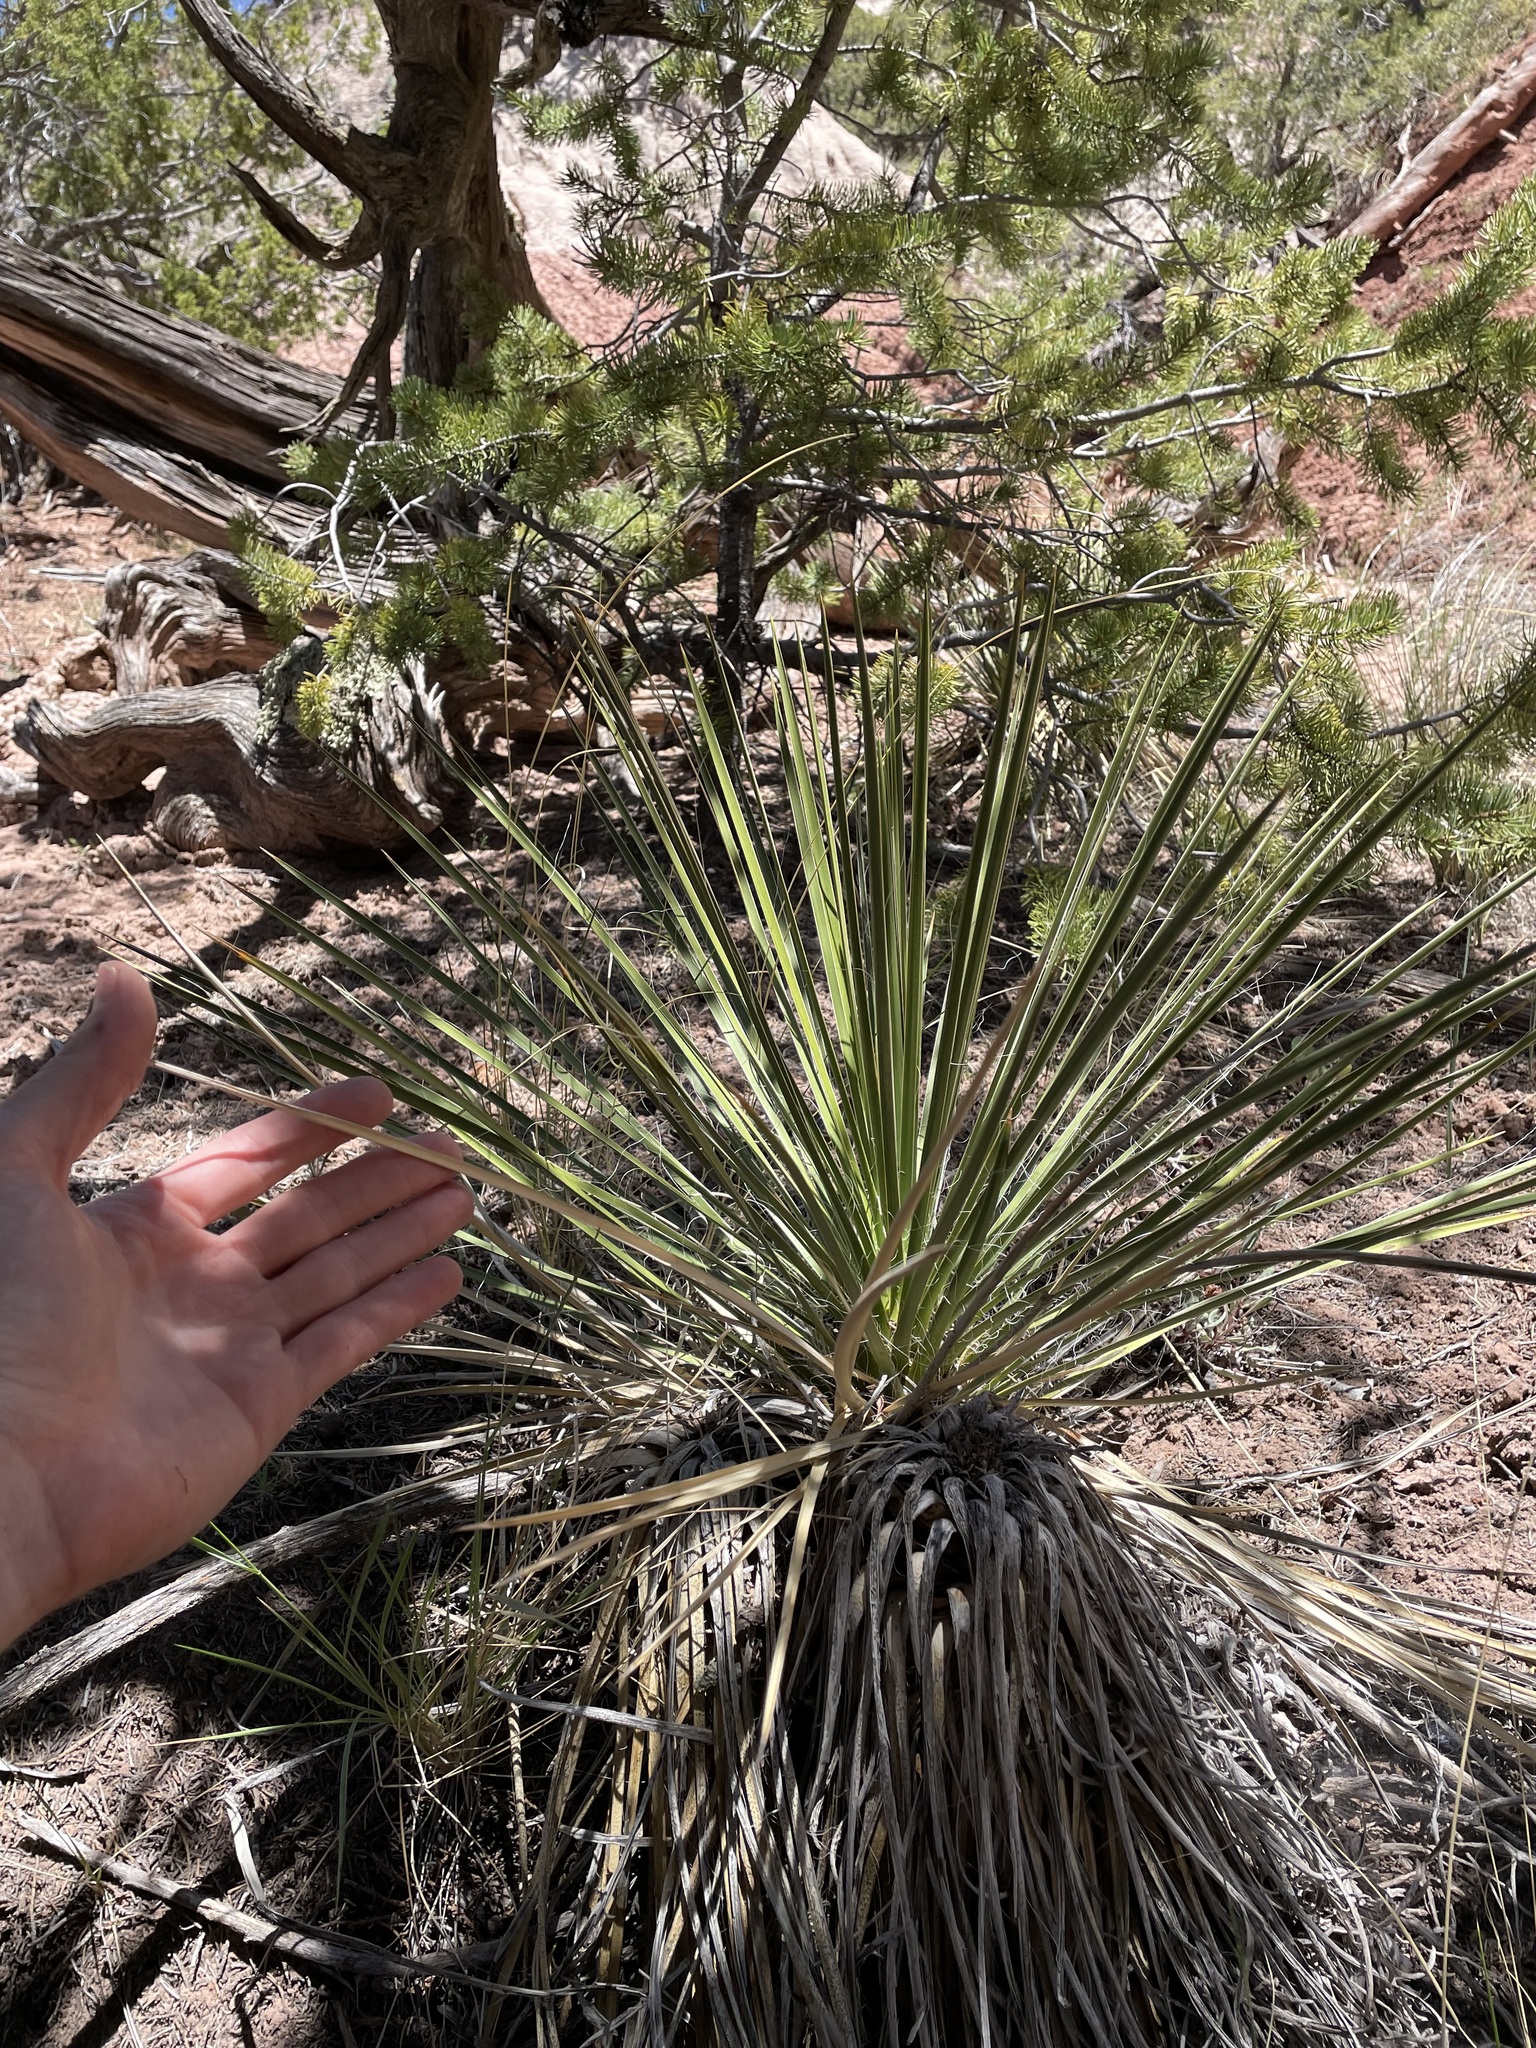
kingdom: Plantae
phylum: Tracheophyta
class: Liliopsida
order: Asparagales
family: Asparagaceae
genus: Yucca
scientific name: Yucca
